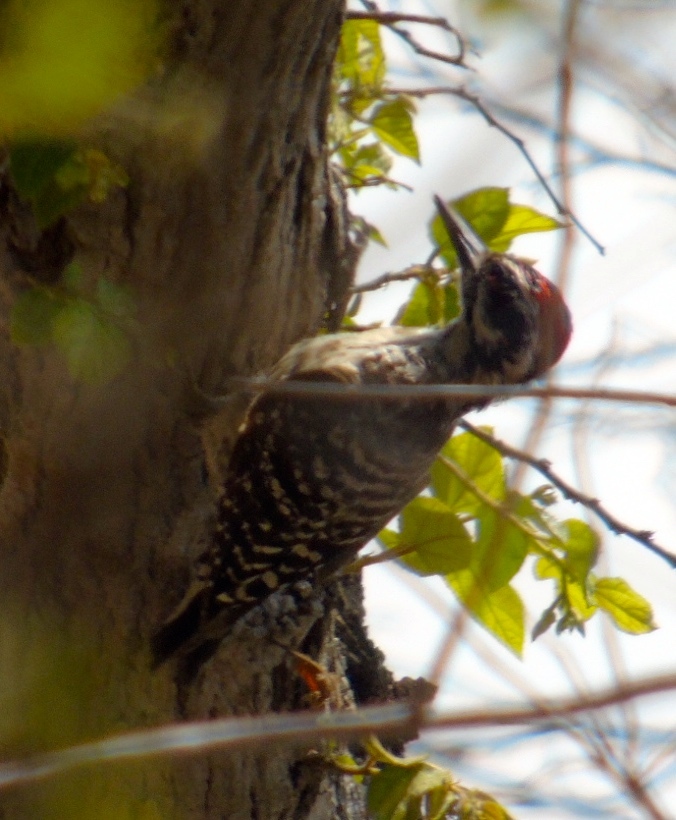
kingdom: Animalia
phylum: Chordata
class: Aves
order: Piciformes
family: Picidae
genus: Dryobates
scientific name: Dryobates scalaris
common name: Ladder-backed woodpecker
